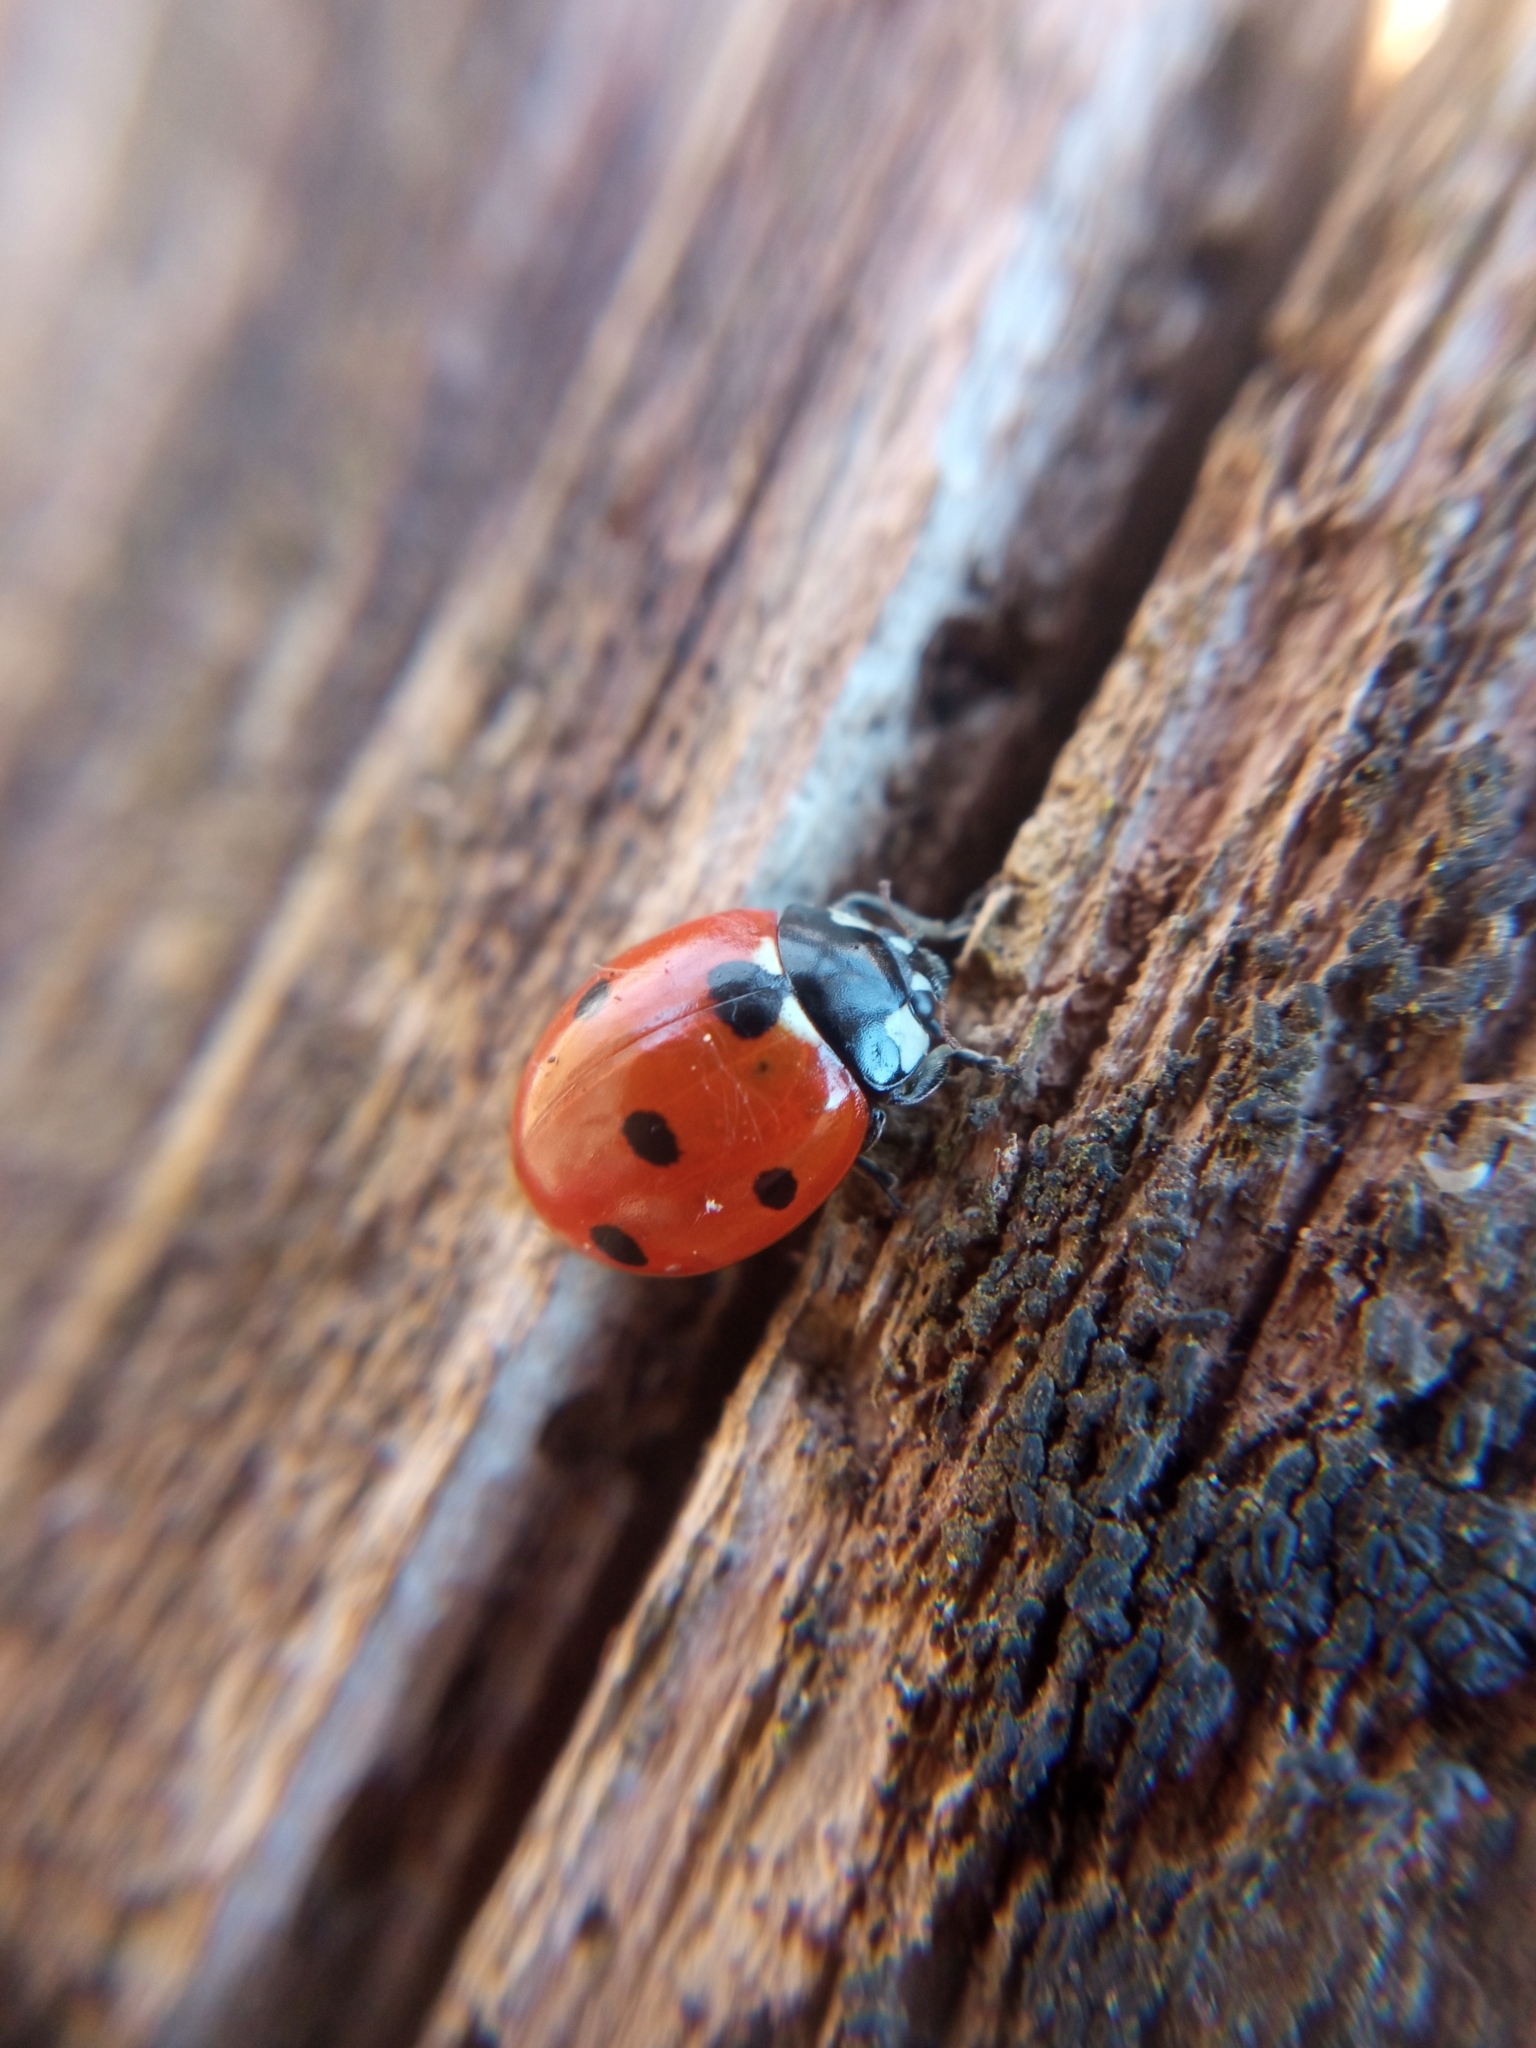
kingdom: Animalia
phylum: Arthropoda
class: Insecta
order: Coleoptera
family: Coccinellidae
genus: Coccinella
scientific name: Coccinella septempunctata
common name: Sevenspotted lady beetle
